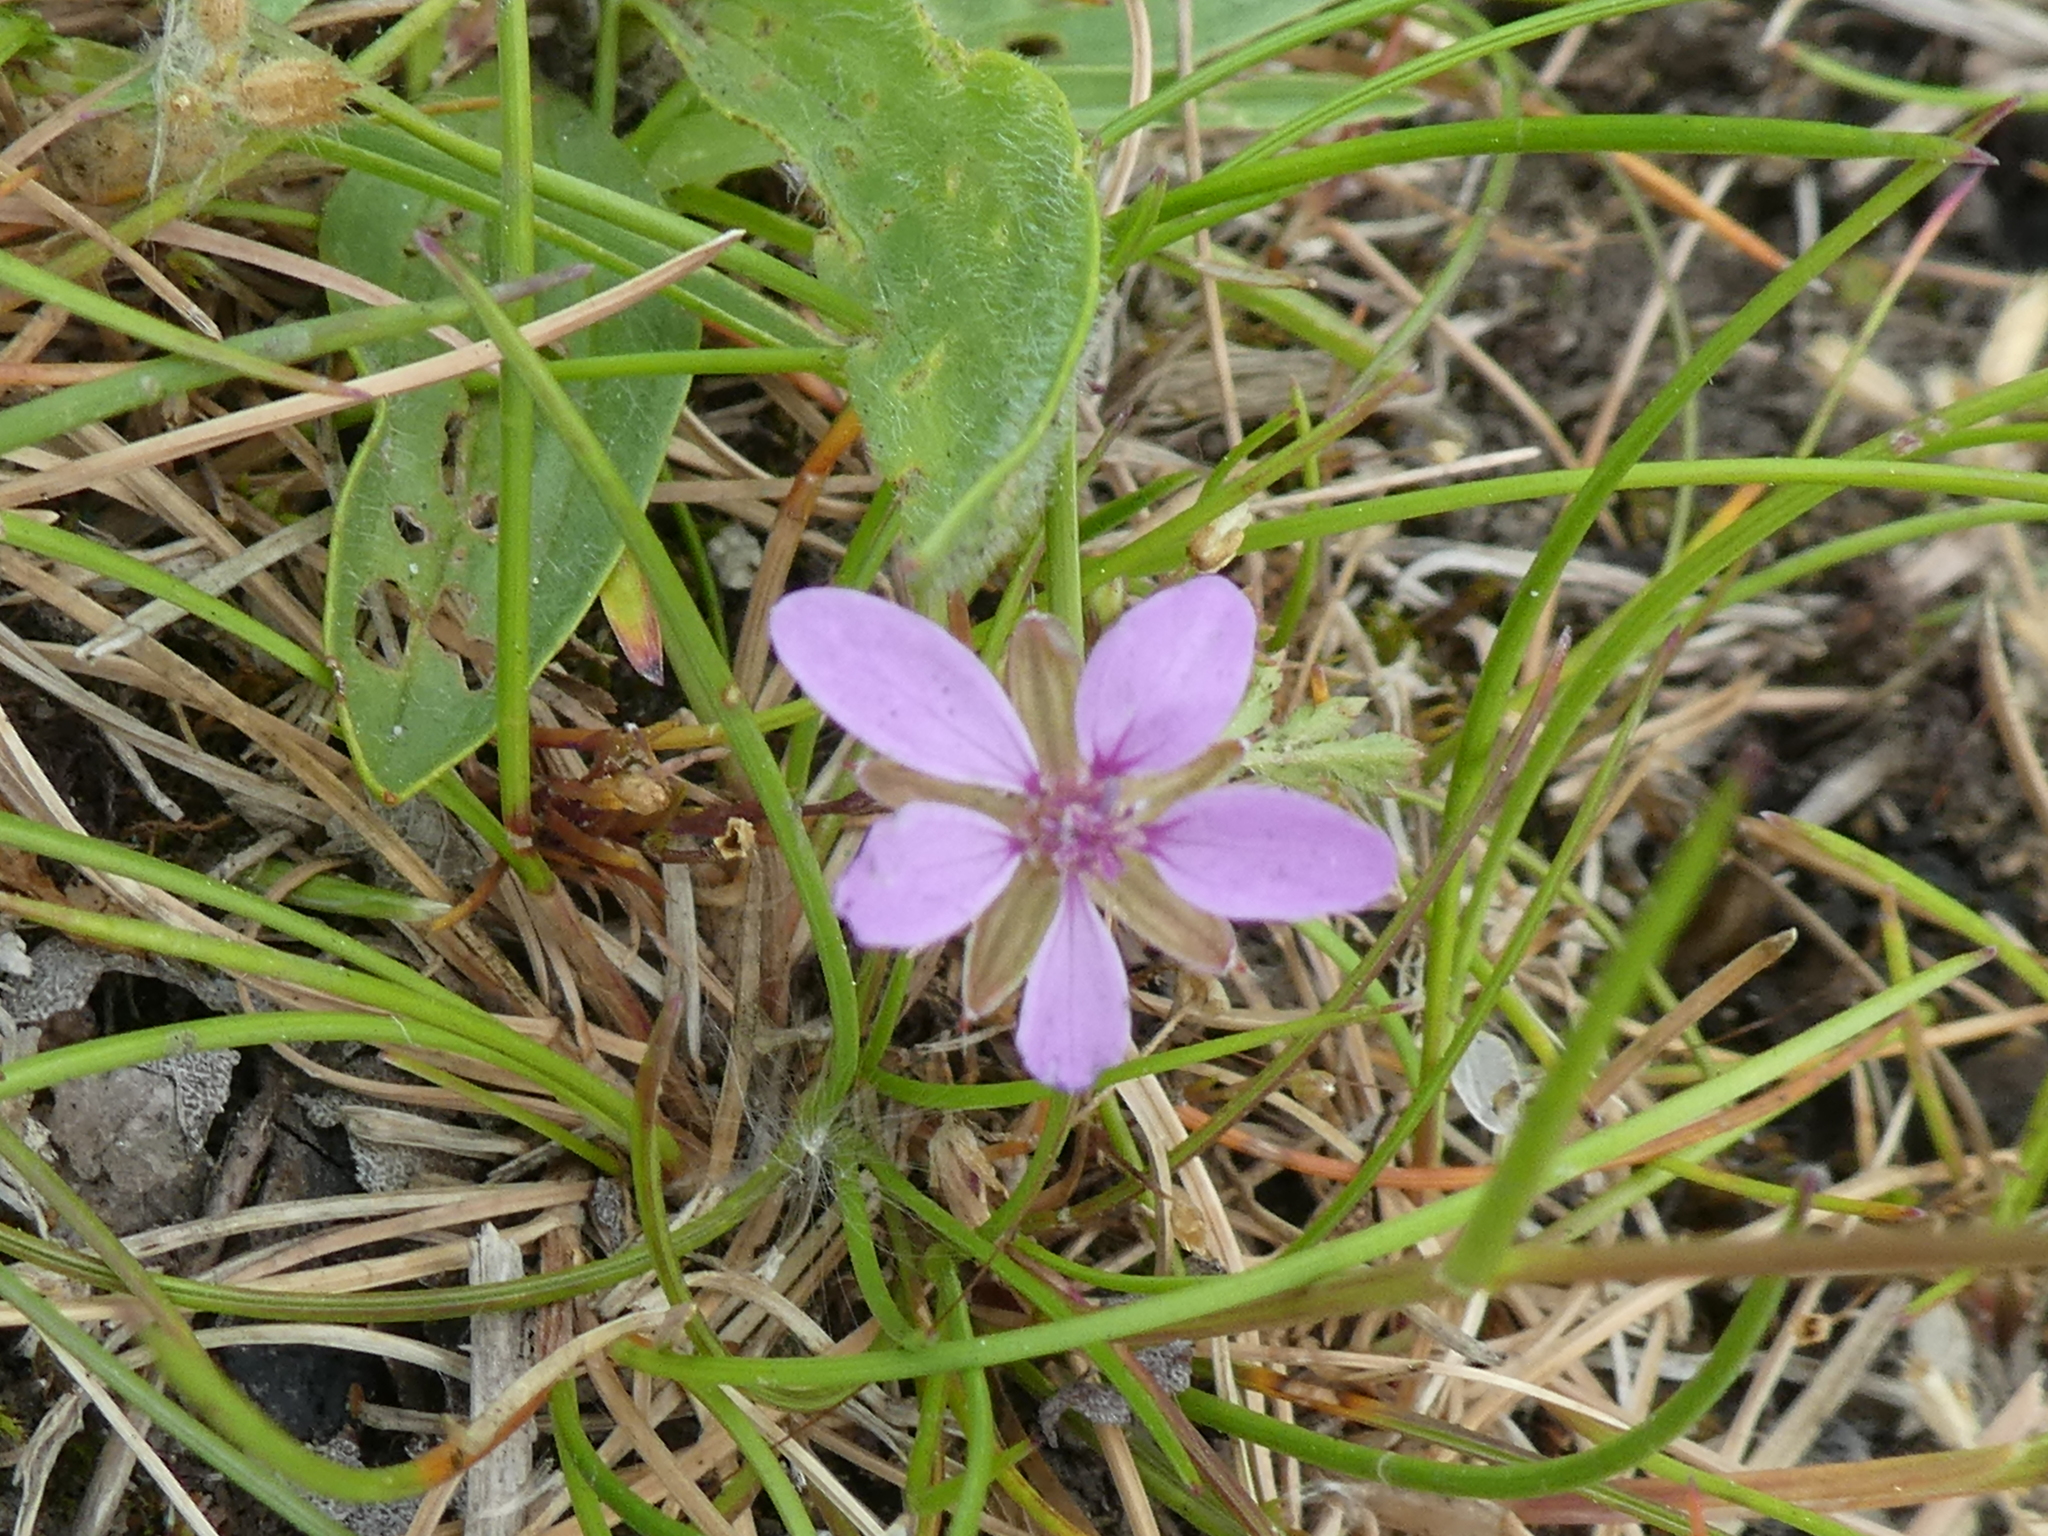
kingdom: Plantae
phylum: Tracheophyta
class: Magnoliopsida
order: Geraniales
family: Geraniaceae
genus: Erodium
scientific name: Erodium cicutarium
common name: Common stork's-bill
